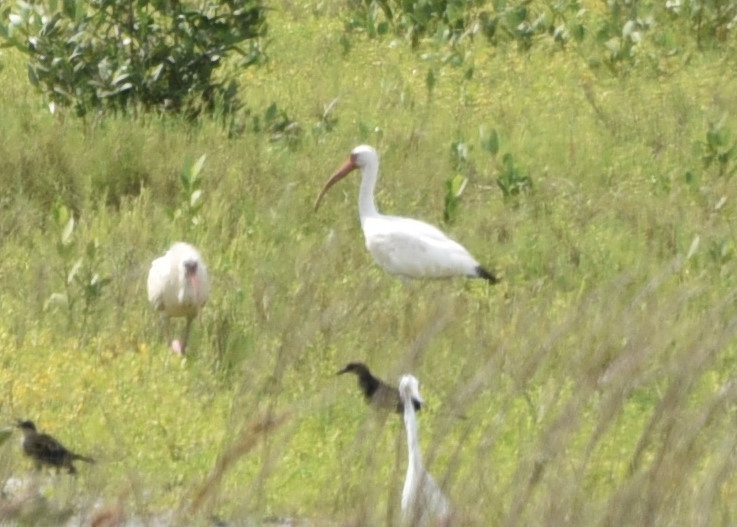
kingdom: Animalia
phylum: Chordata
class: Aves
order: Pelecaniformes
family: Threskiornithidae
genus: Eudocimus
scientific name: Eudocimus albus
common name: White ibis
